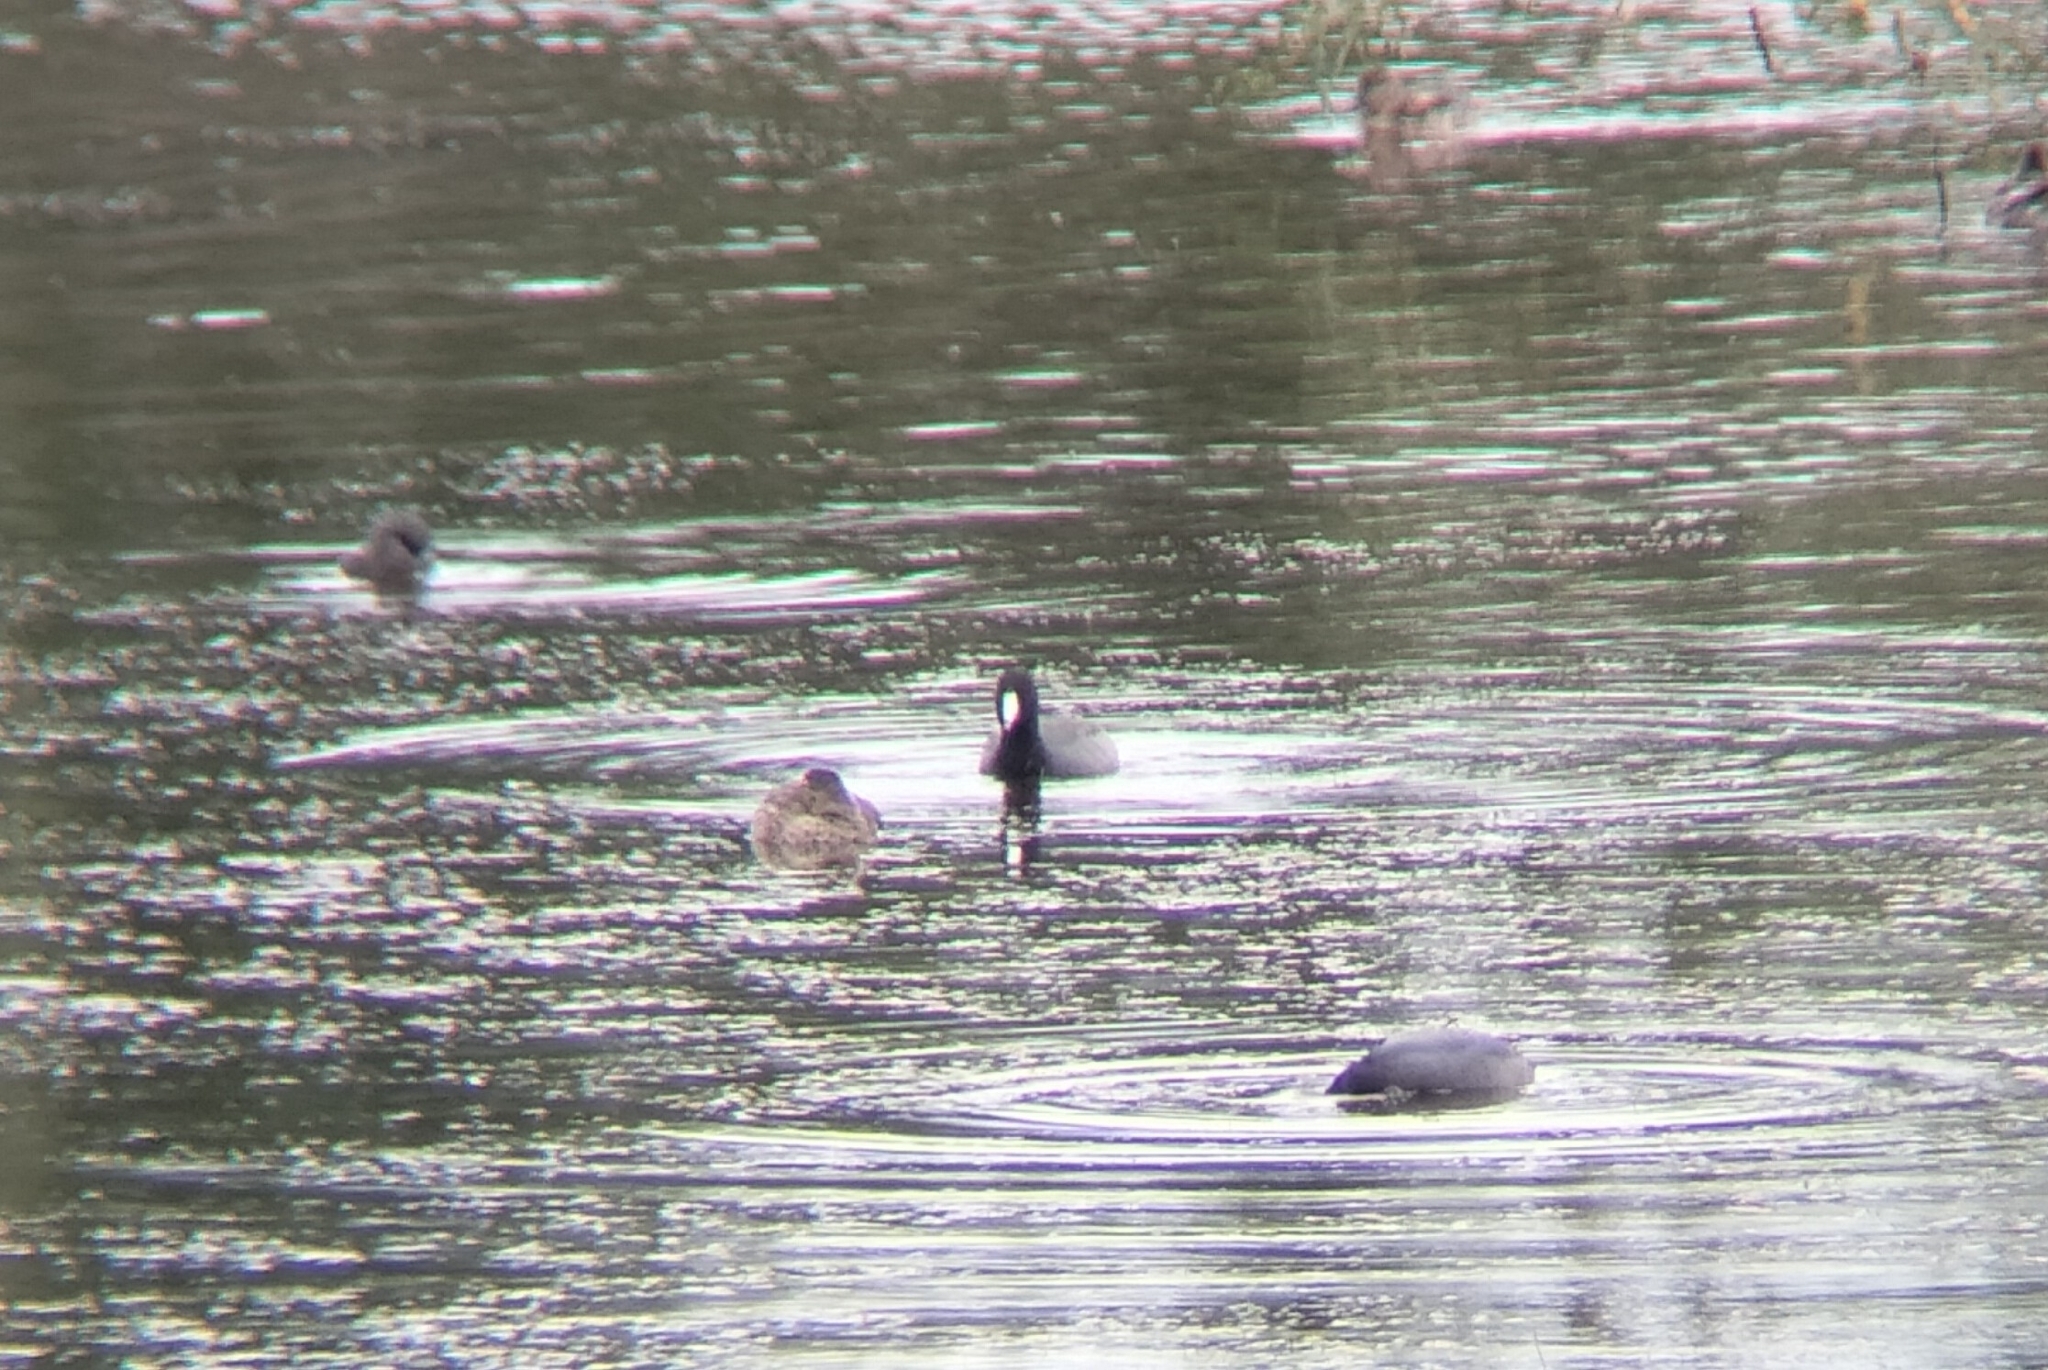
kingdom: Animalia
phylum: Chordata
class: Aves
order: Gruiformes
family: Rallidae
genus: Fulica
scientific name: Fulica americana
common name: American coot
